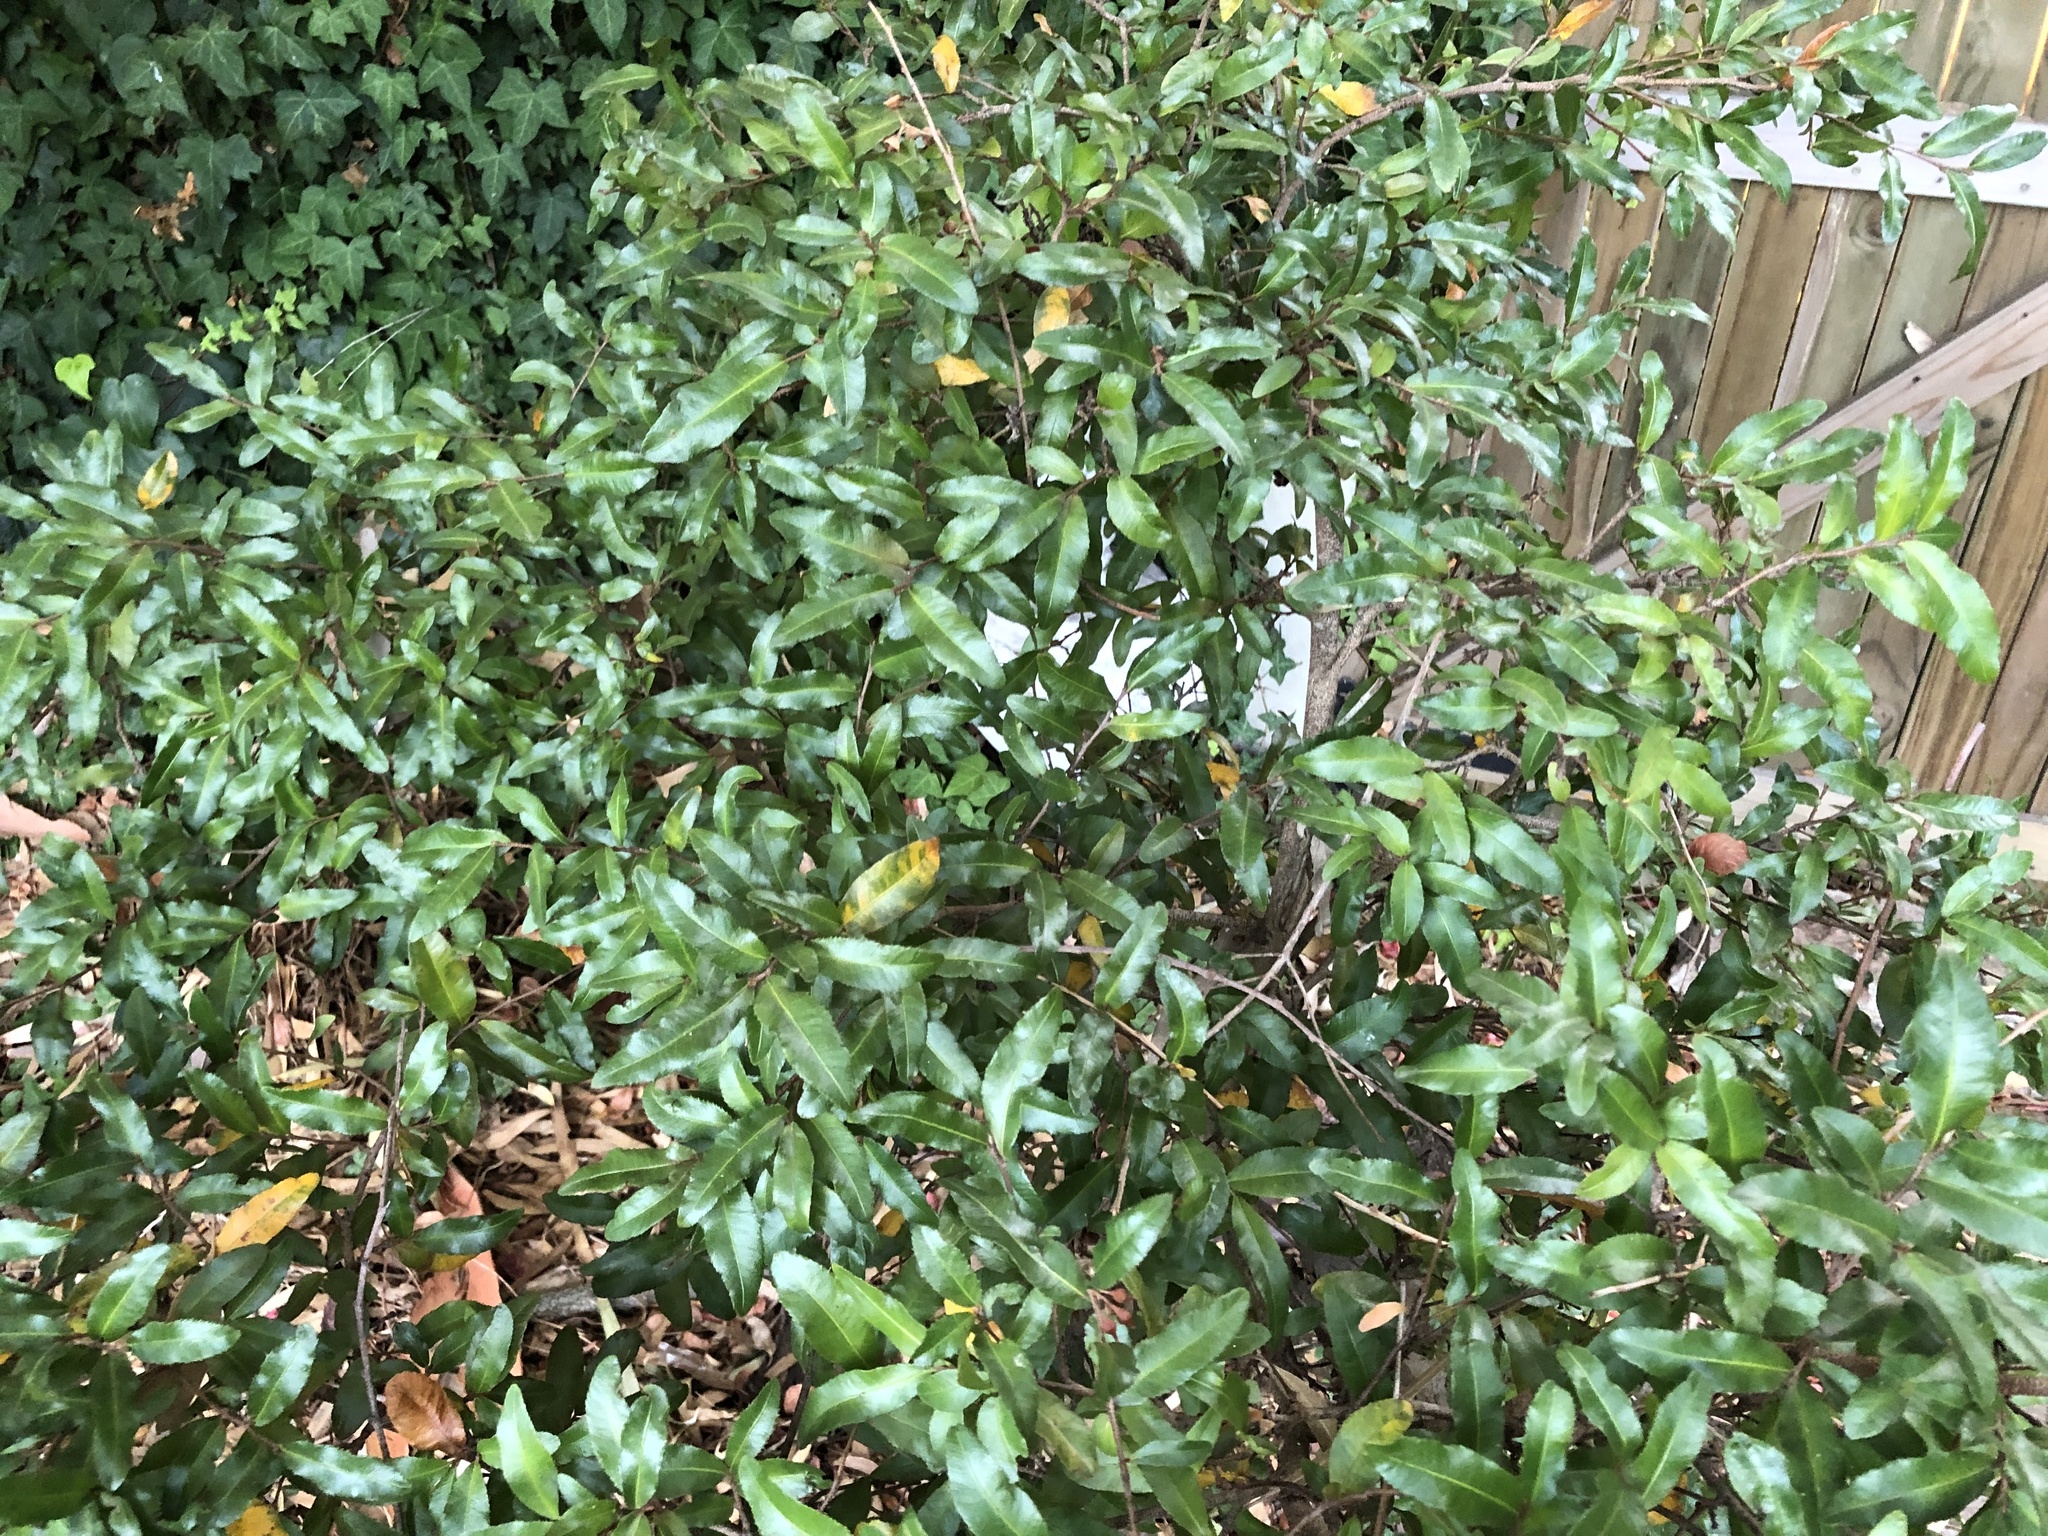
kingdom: Plantae
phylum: Tracheophyta
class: Magnoliopsida
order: Malpighiales
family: Ochnaceae
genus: Ochna
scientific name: Ochna serrulata
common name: Mickey mouse plant
